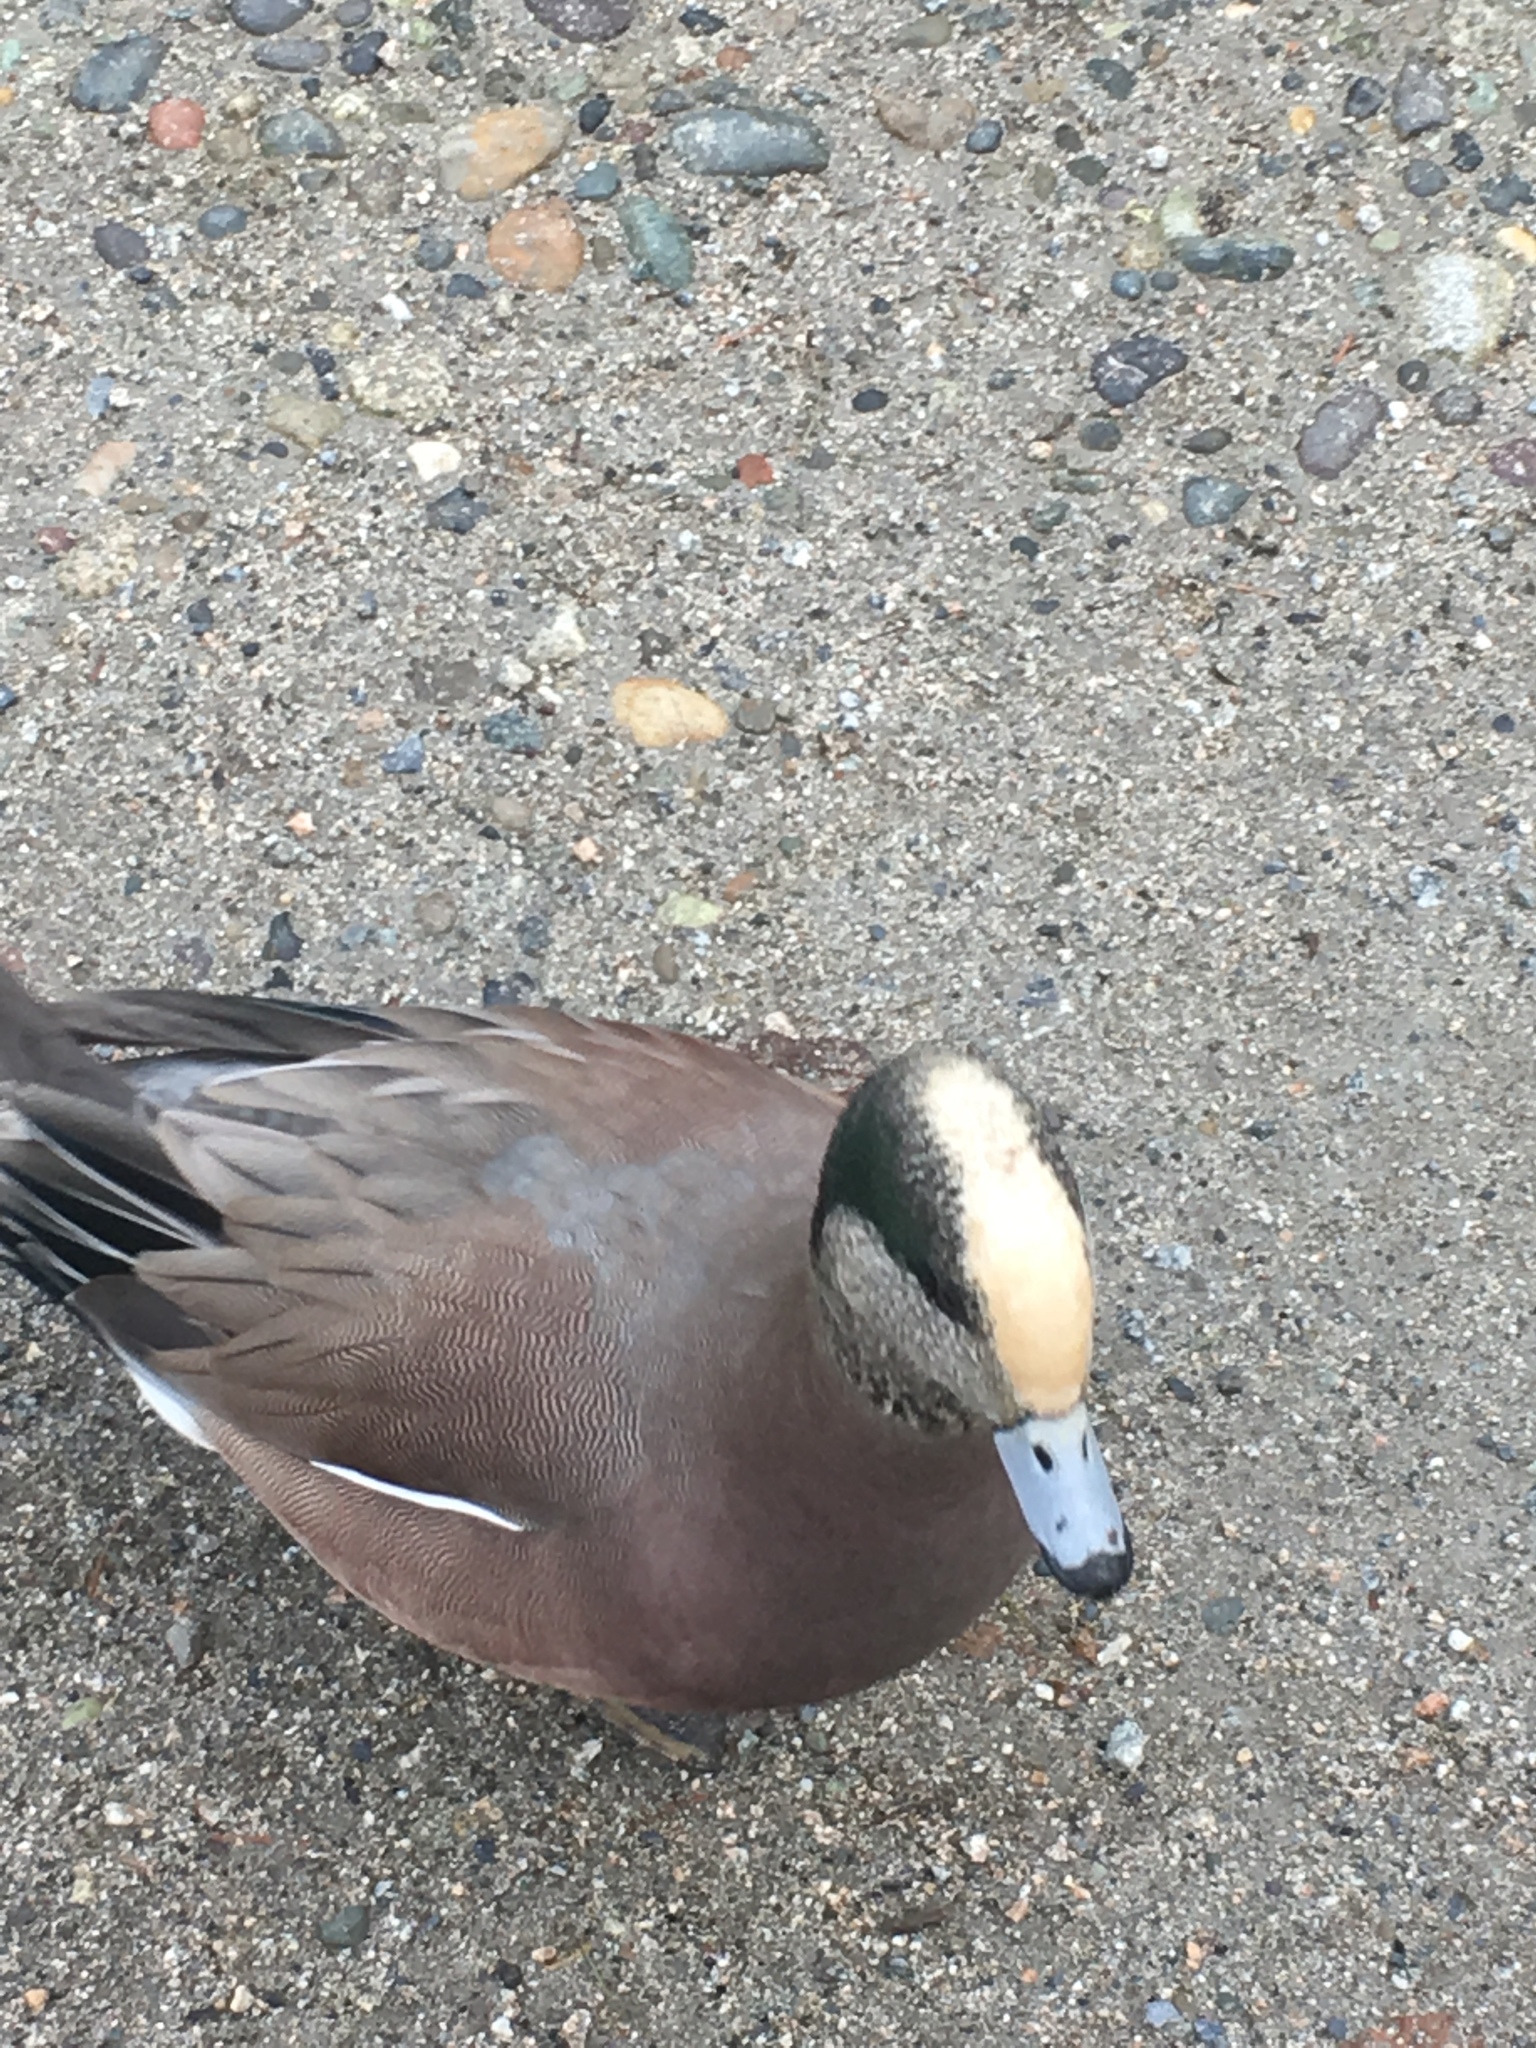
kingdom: Animalia
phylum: Chordata
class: Aves
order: Anseriformes
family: Anatidae
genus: Mareca
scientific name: Mareca americana
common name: American wigeon
